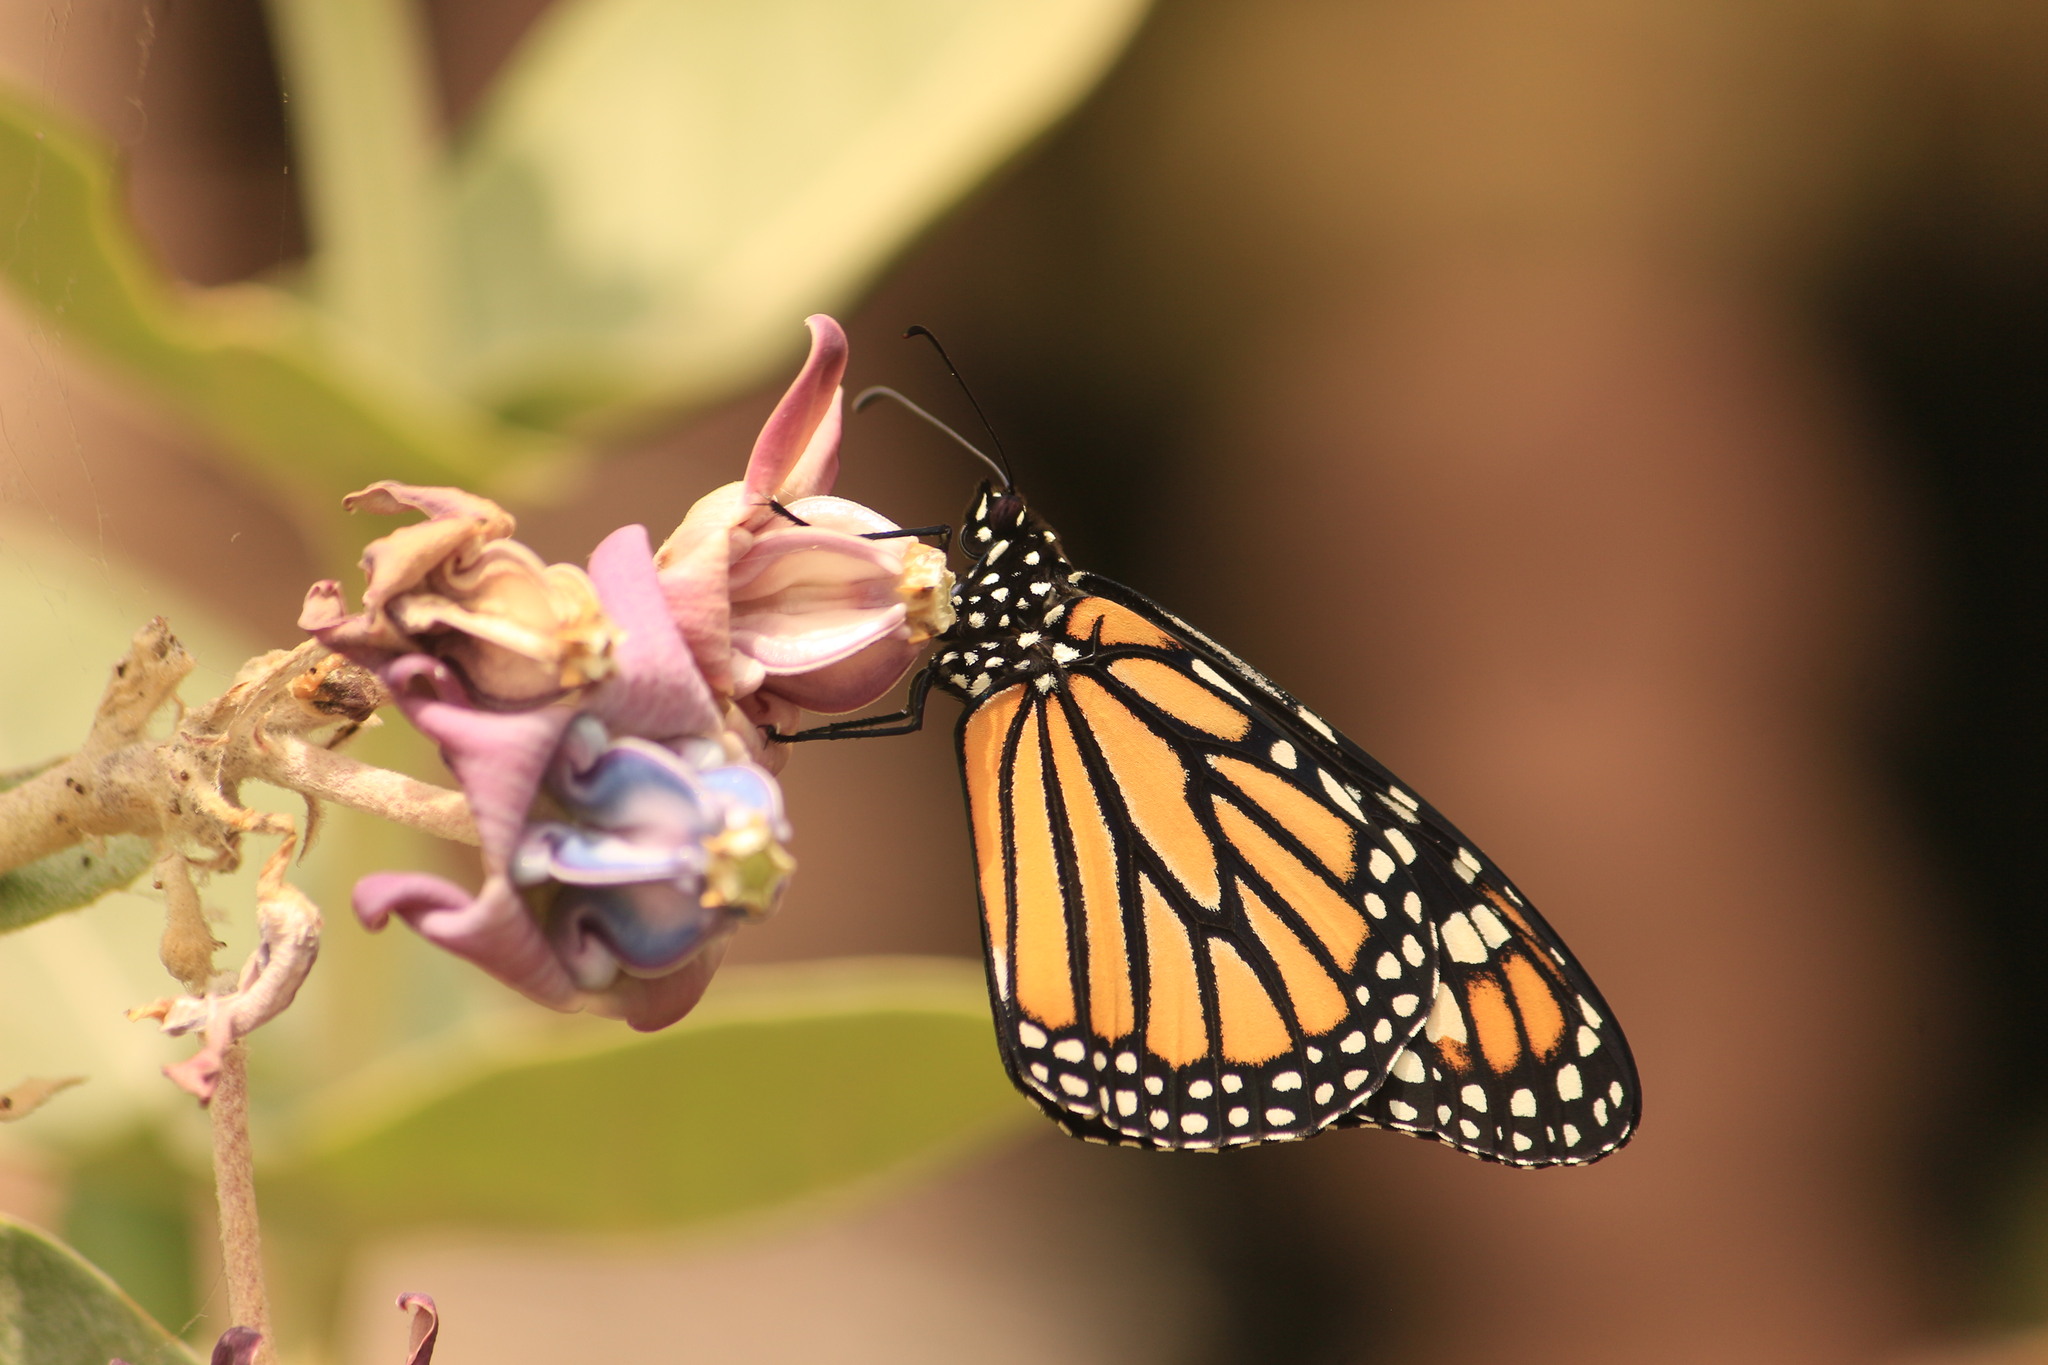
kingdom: Animalia
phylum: Arthropoda
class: Insecta
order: Lepidoptera
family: Nymphalidae
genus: Danaus
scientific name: Danaus plexippus
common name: Monarch
